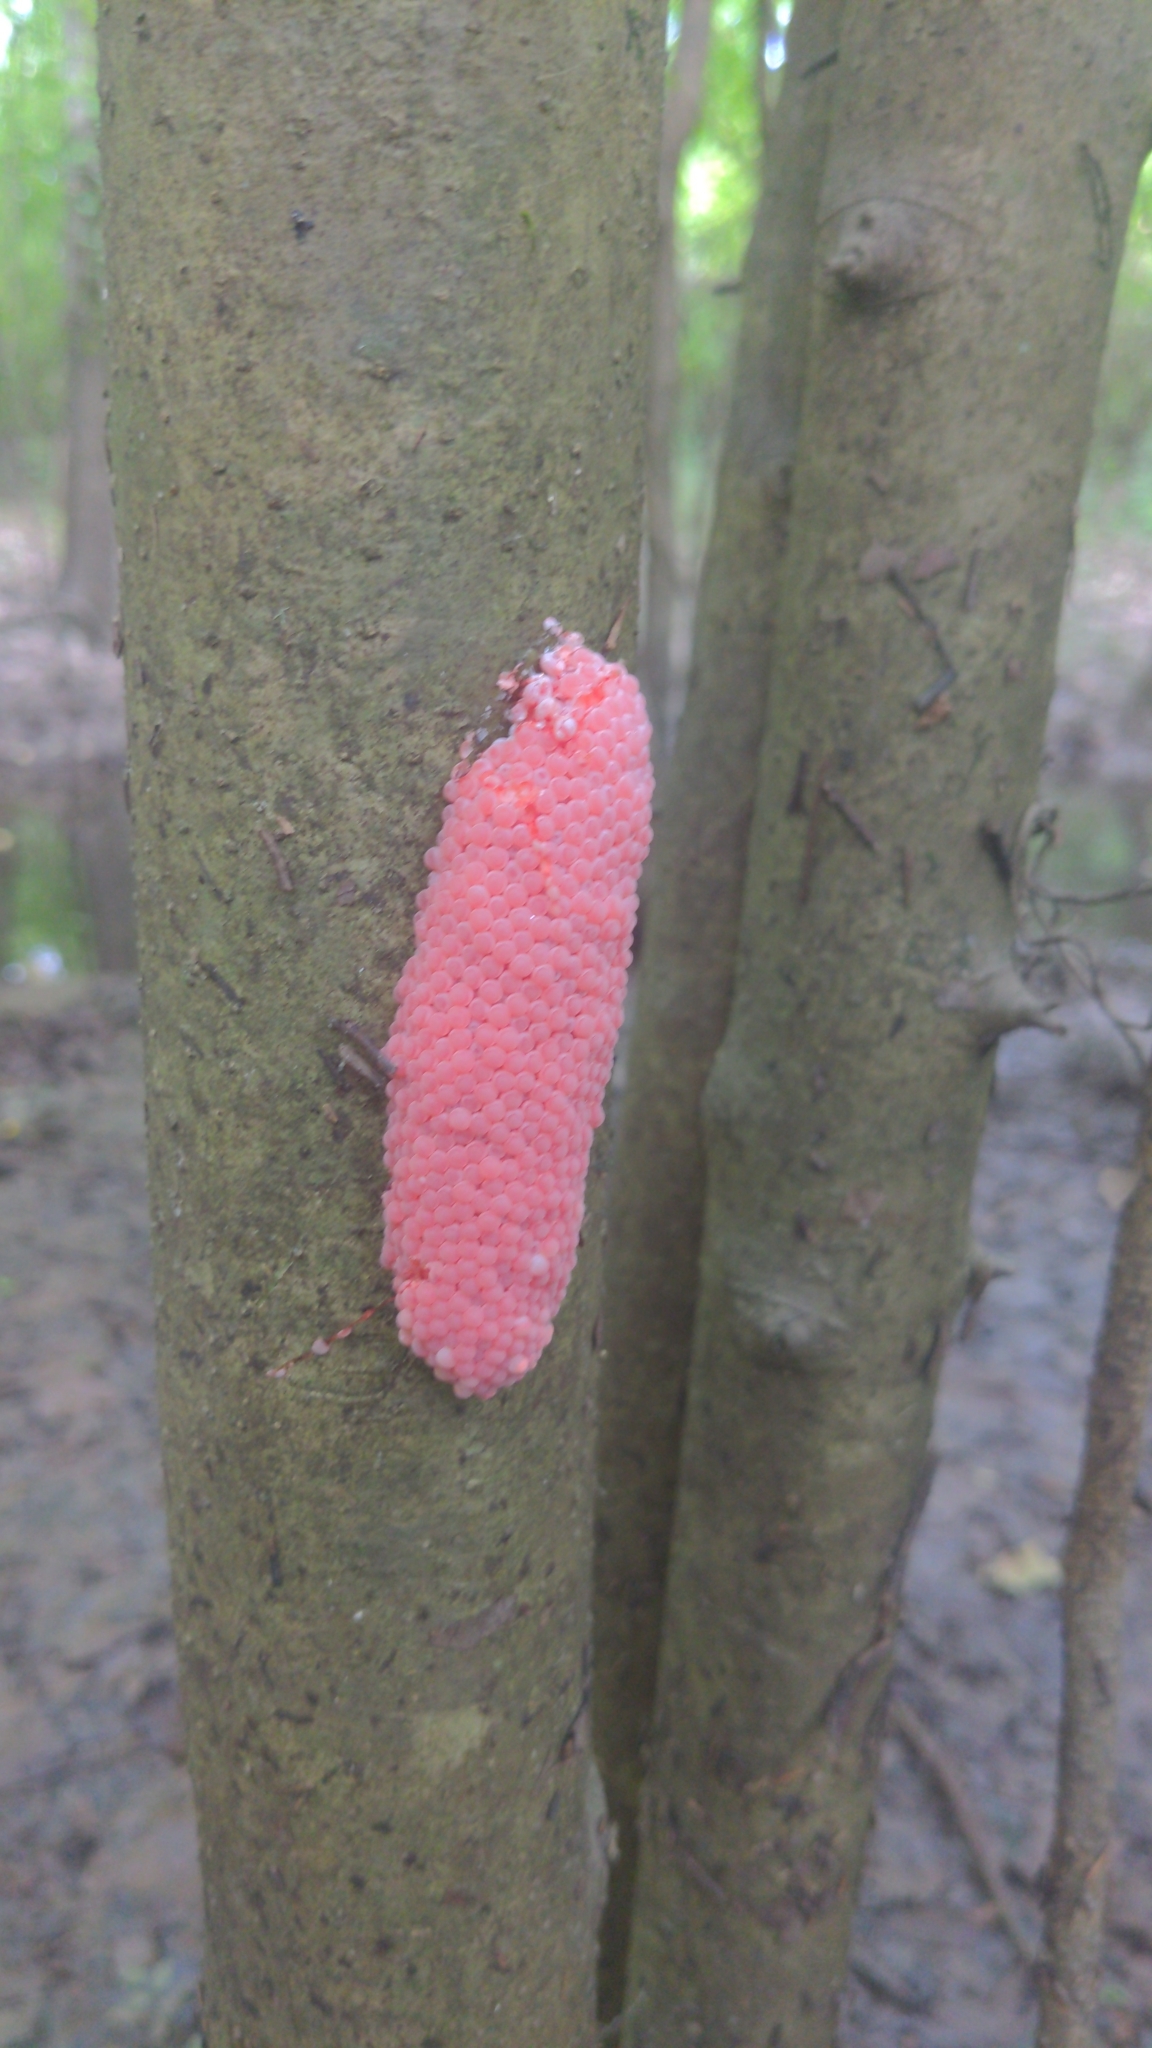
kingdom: Animalia
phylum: Mollusca
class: Gastropoda
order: Architaenioglossa
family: Ampullariidae
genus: Pomacea
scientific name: Pomacea canaliculata
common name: Channeled applesnail
